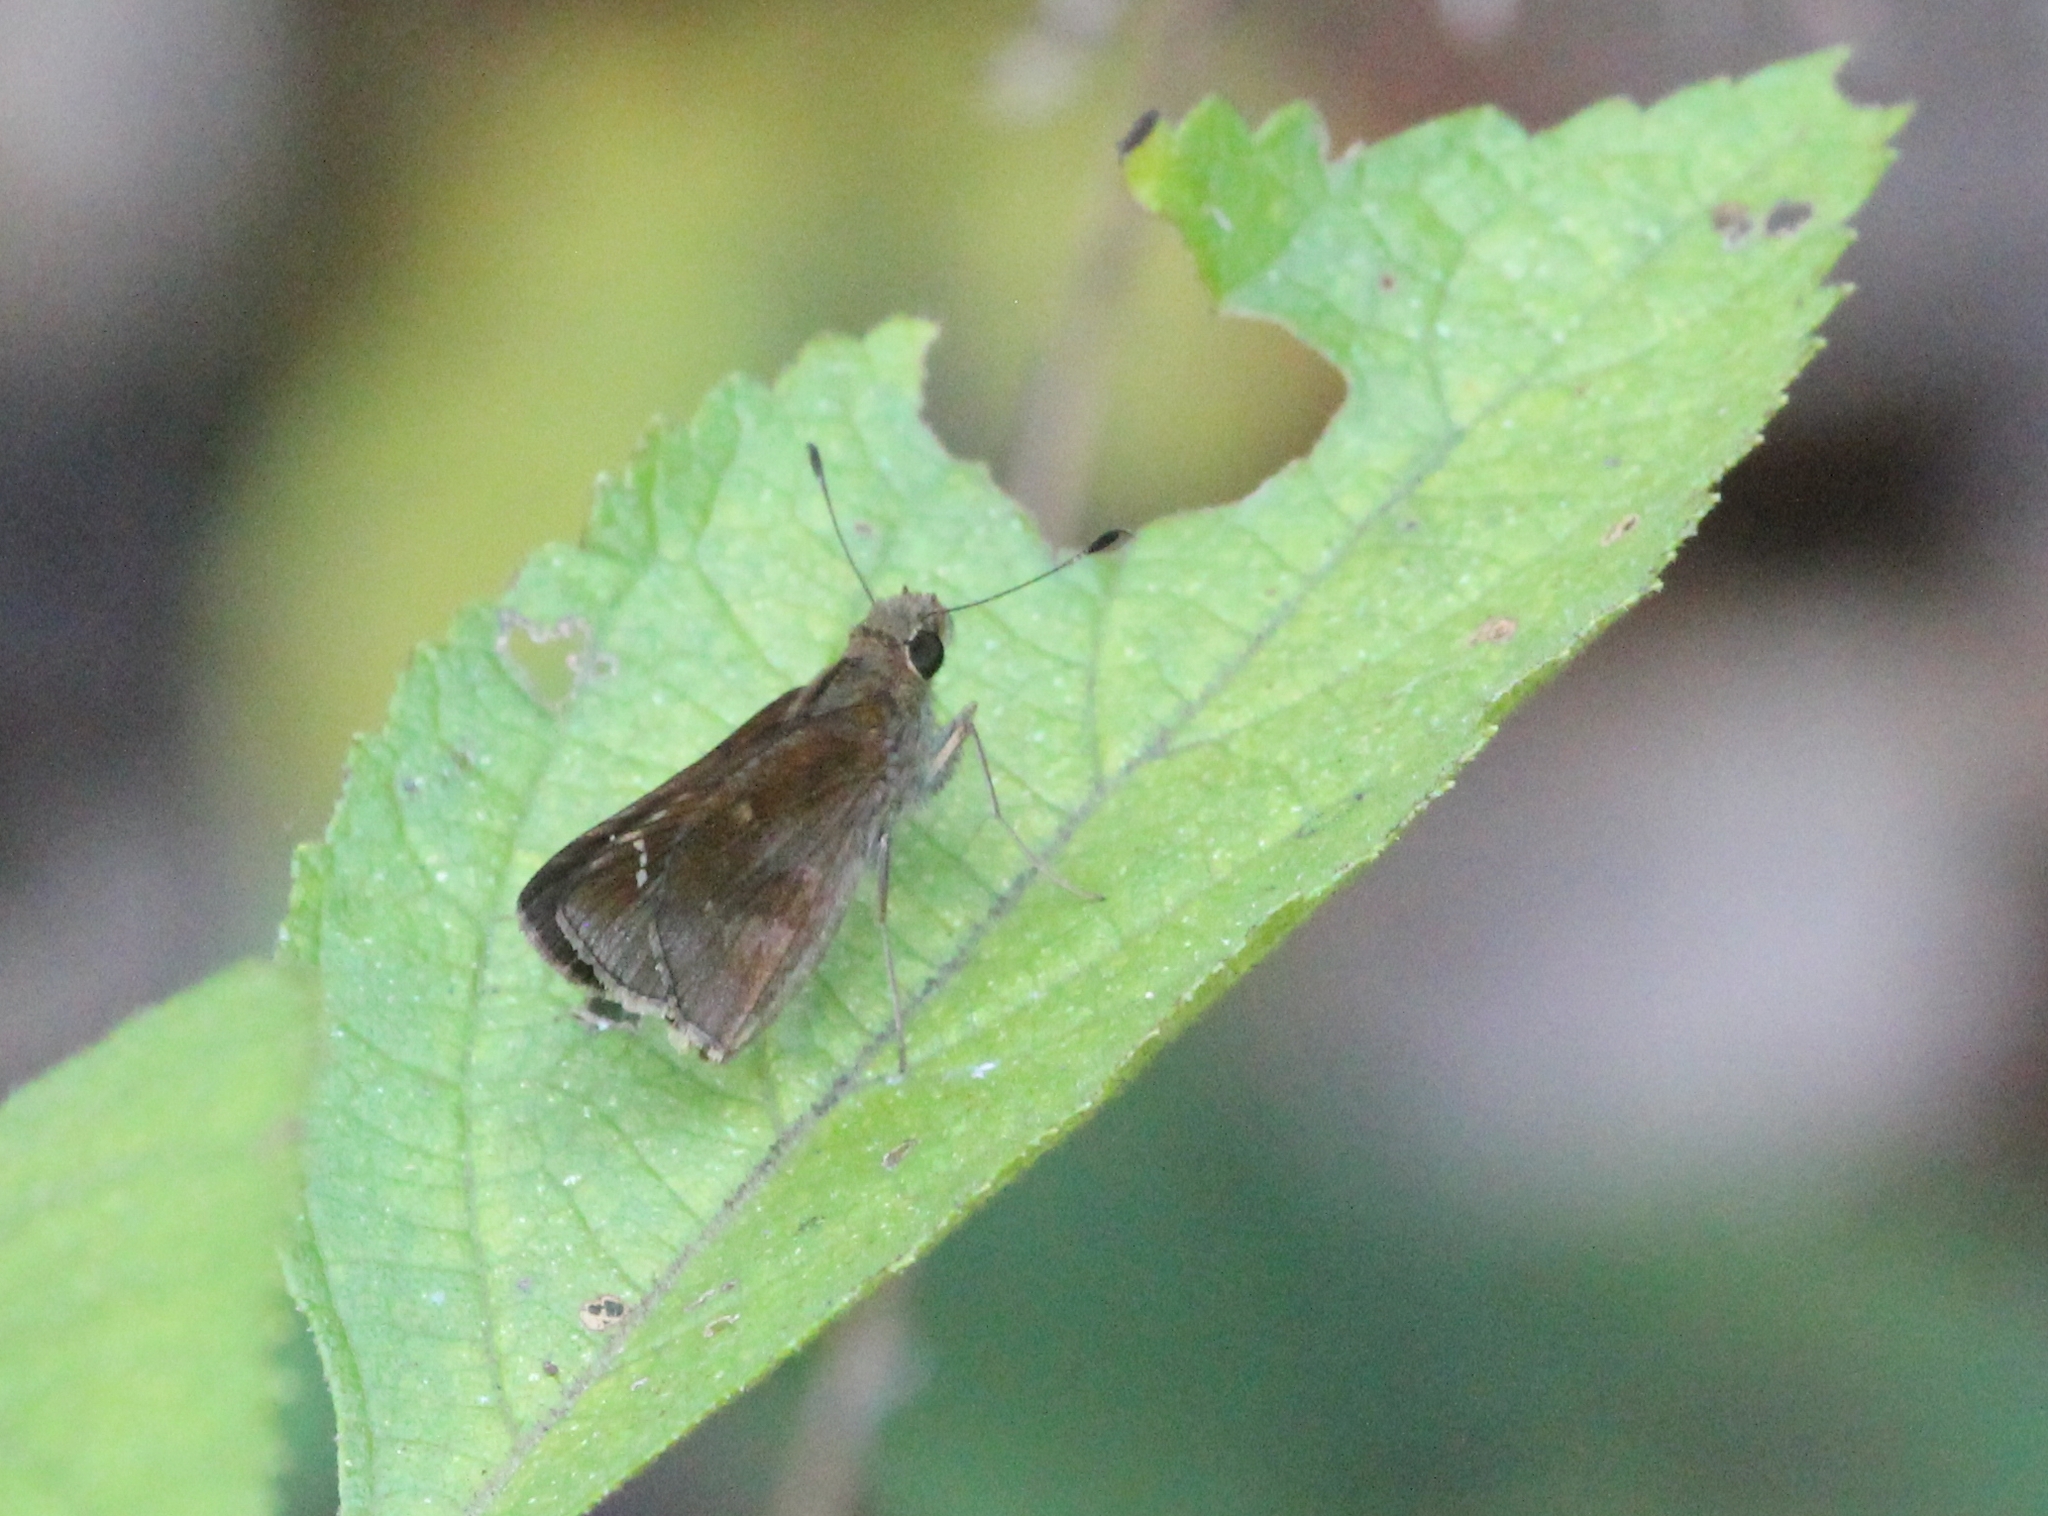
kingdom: Animalia
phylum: Arthropoda
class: Insecta
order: Lepidoptera
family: Hesperiidae
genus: Lerema
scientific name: Lerema accius
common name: Clouded skipper
